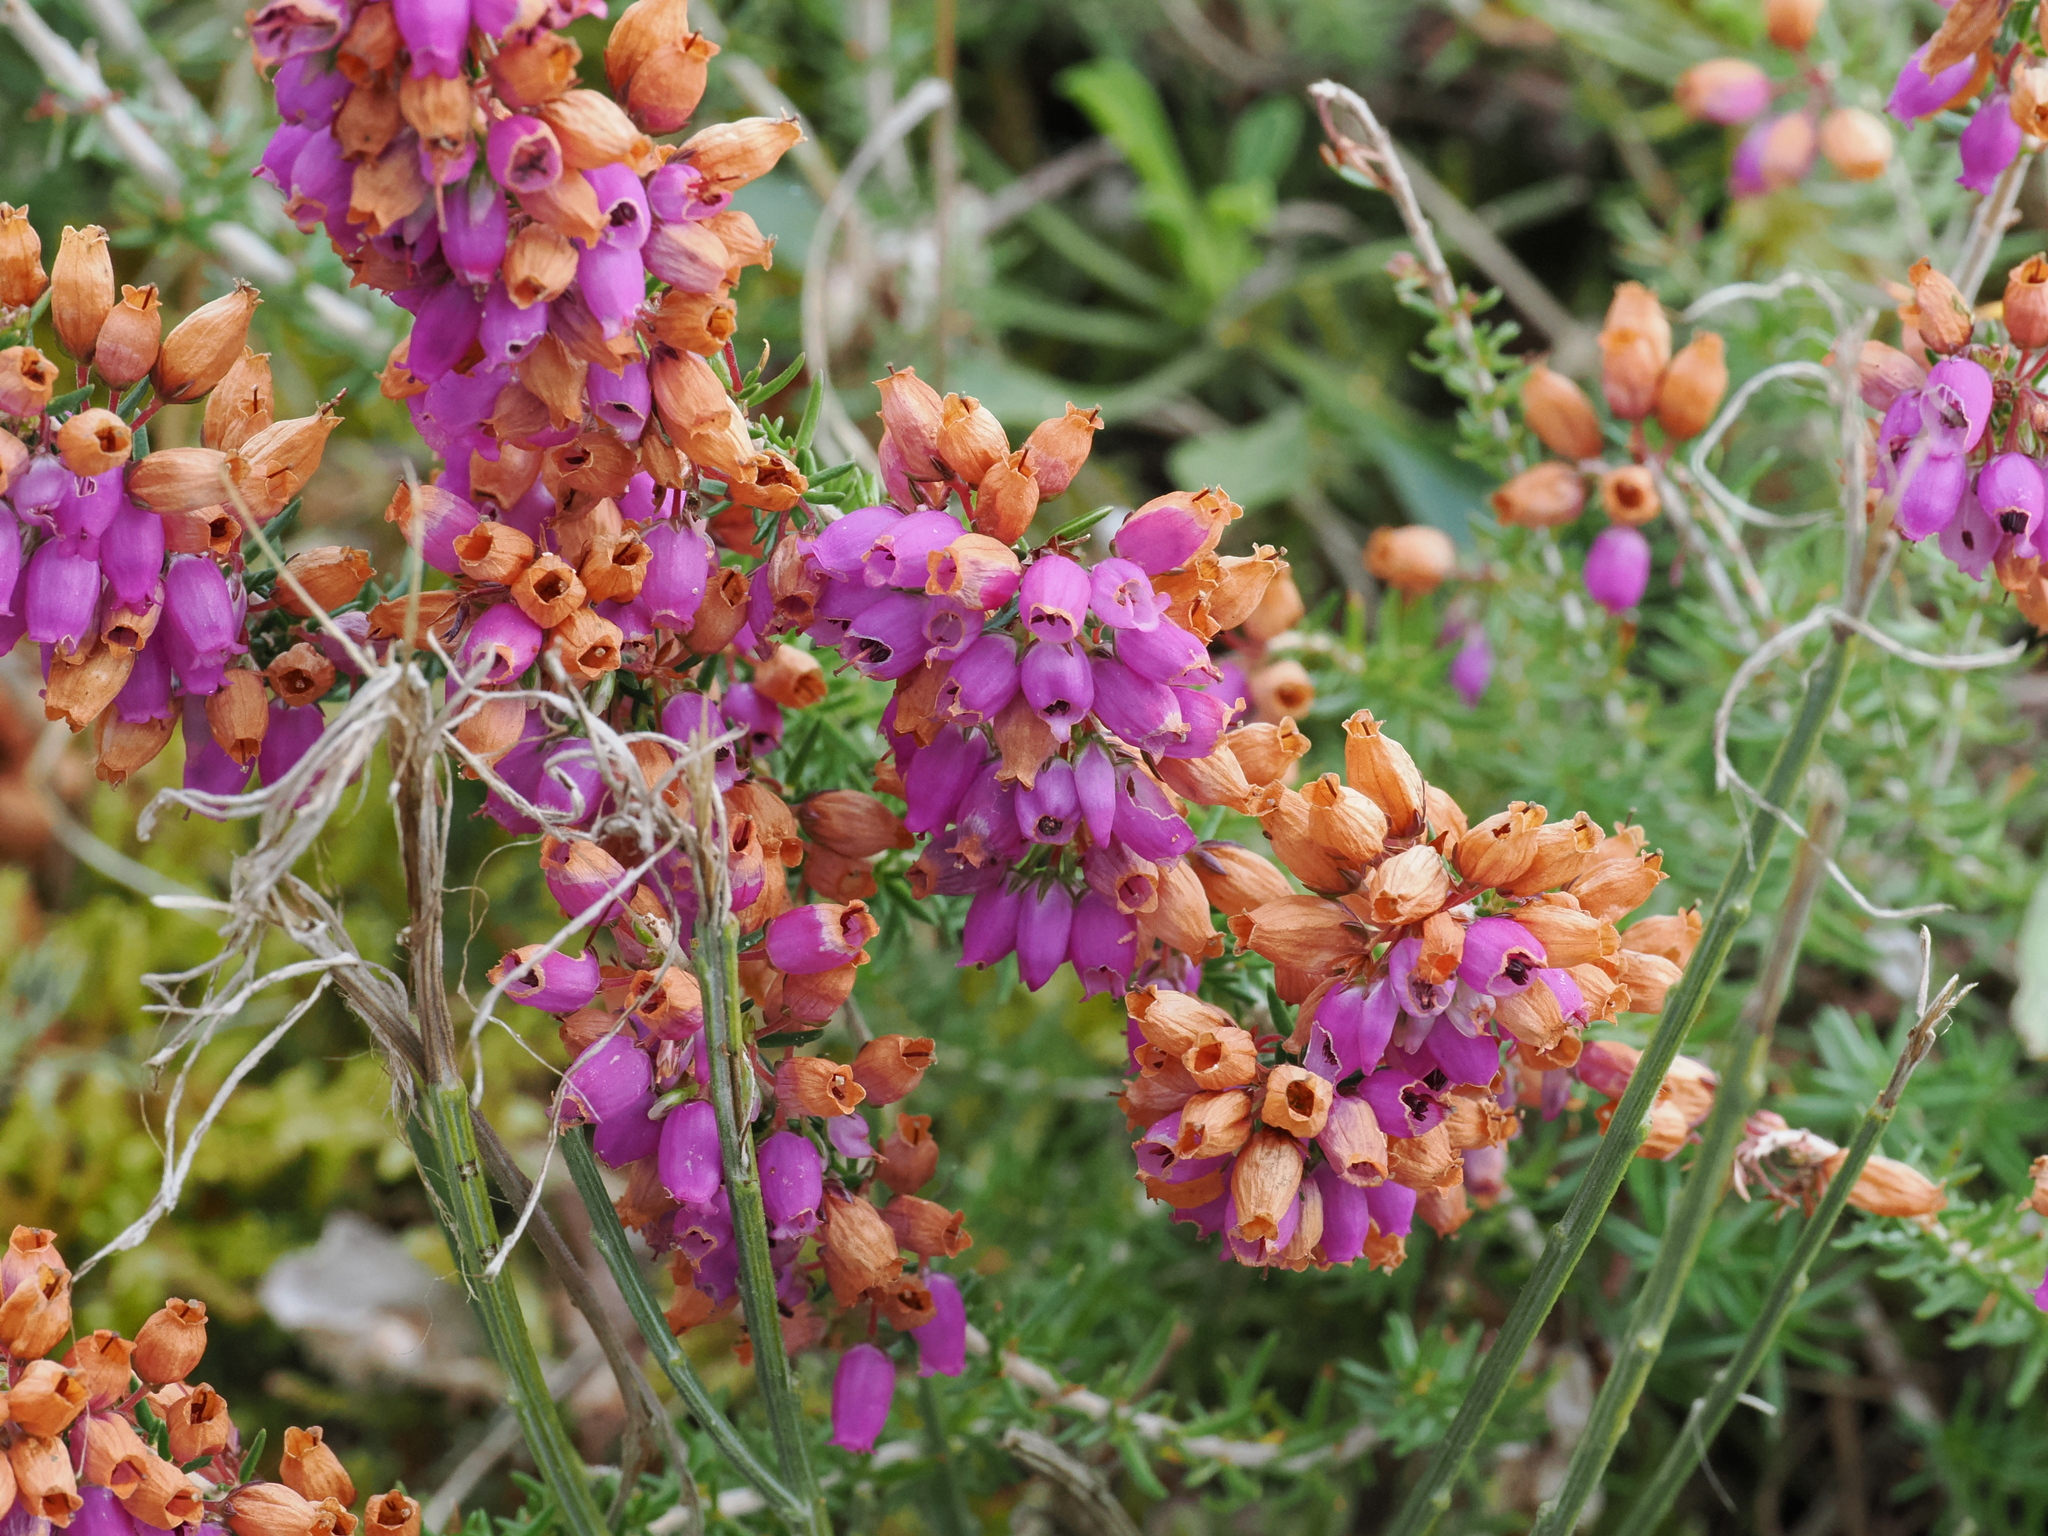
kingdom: Plantae
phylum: Tracheophyta
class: Magnoliopsida
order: Ericales
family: Ericaceae
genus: Erica
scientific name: Erica cinerea
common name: Bell heather
